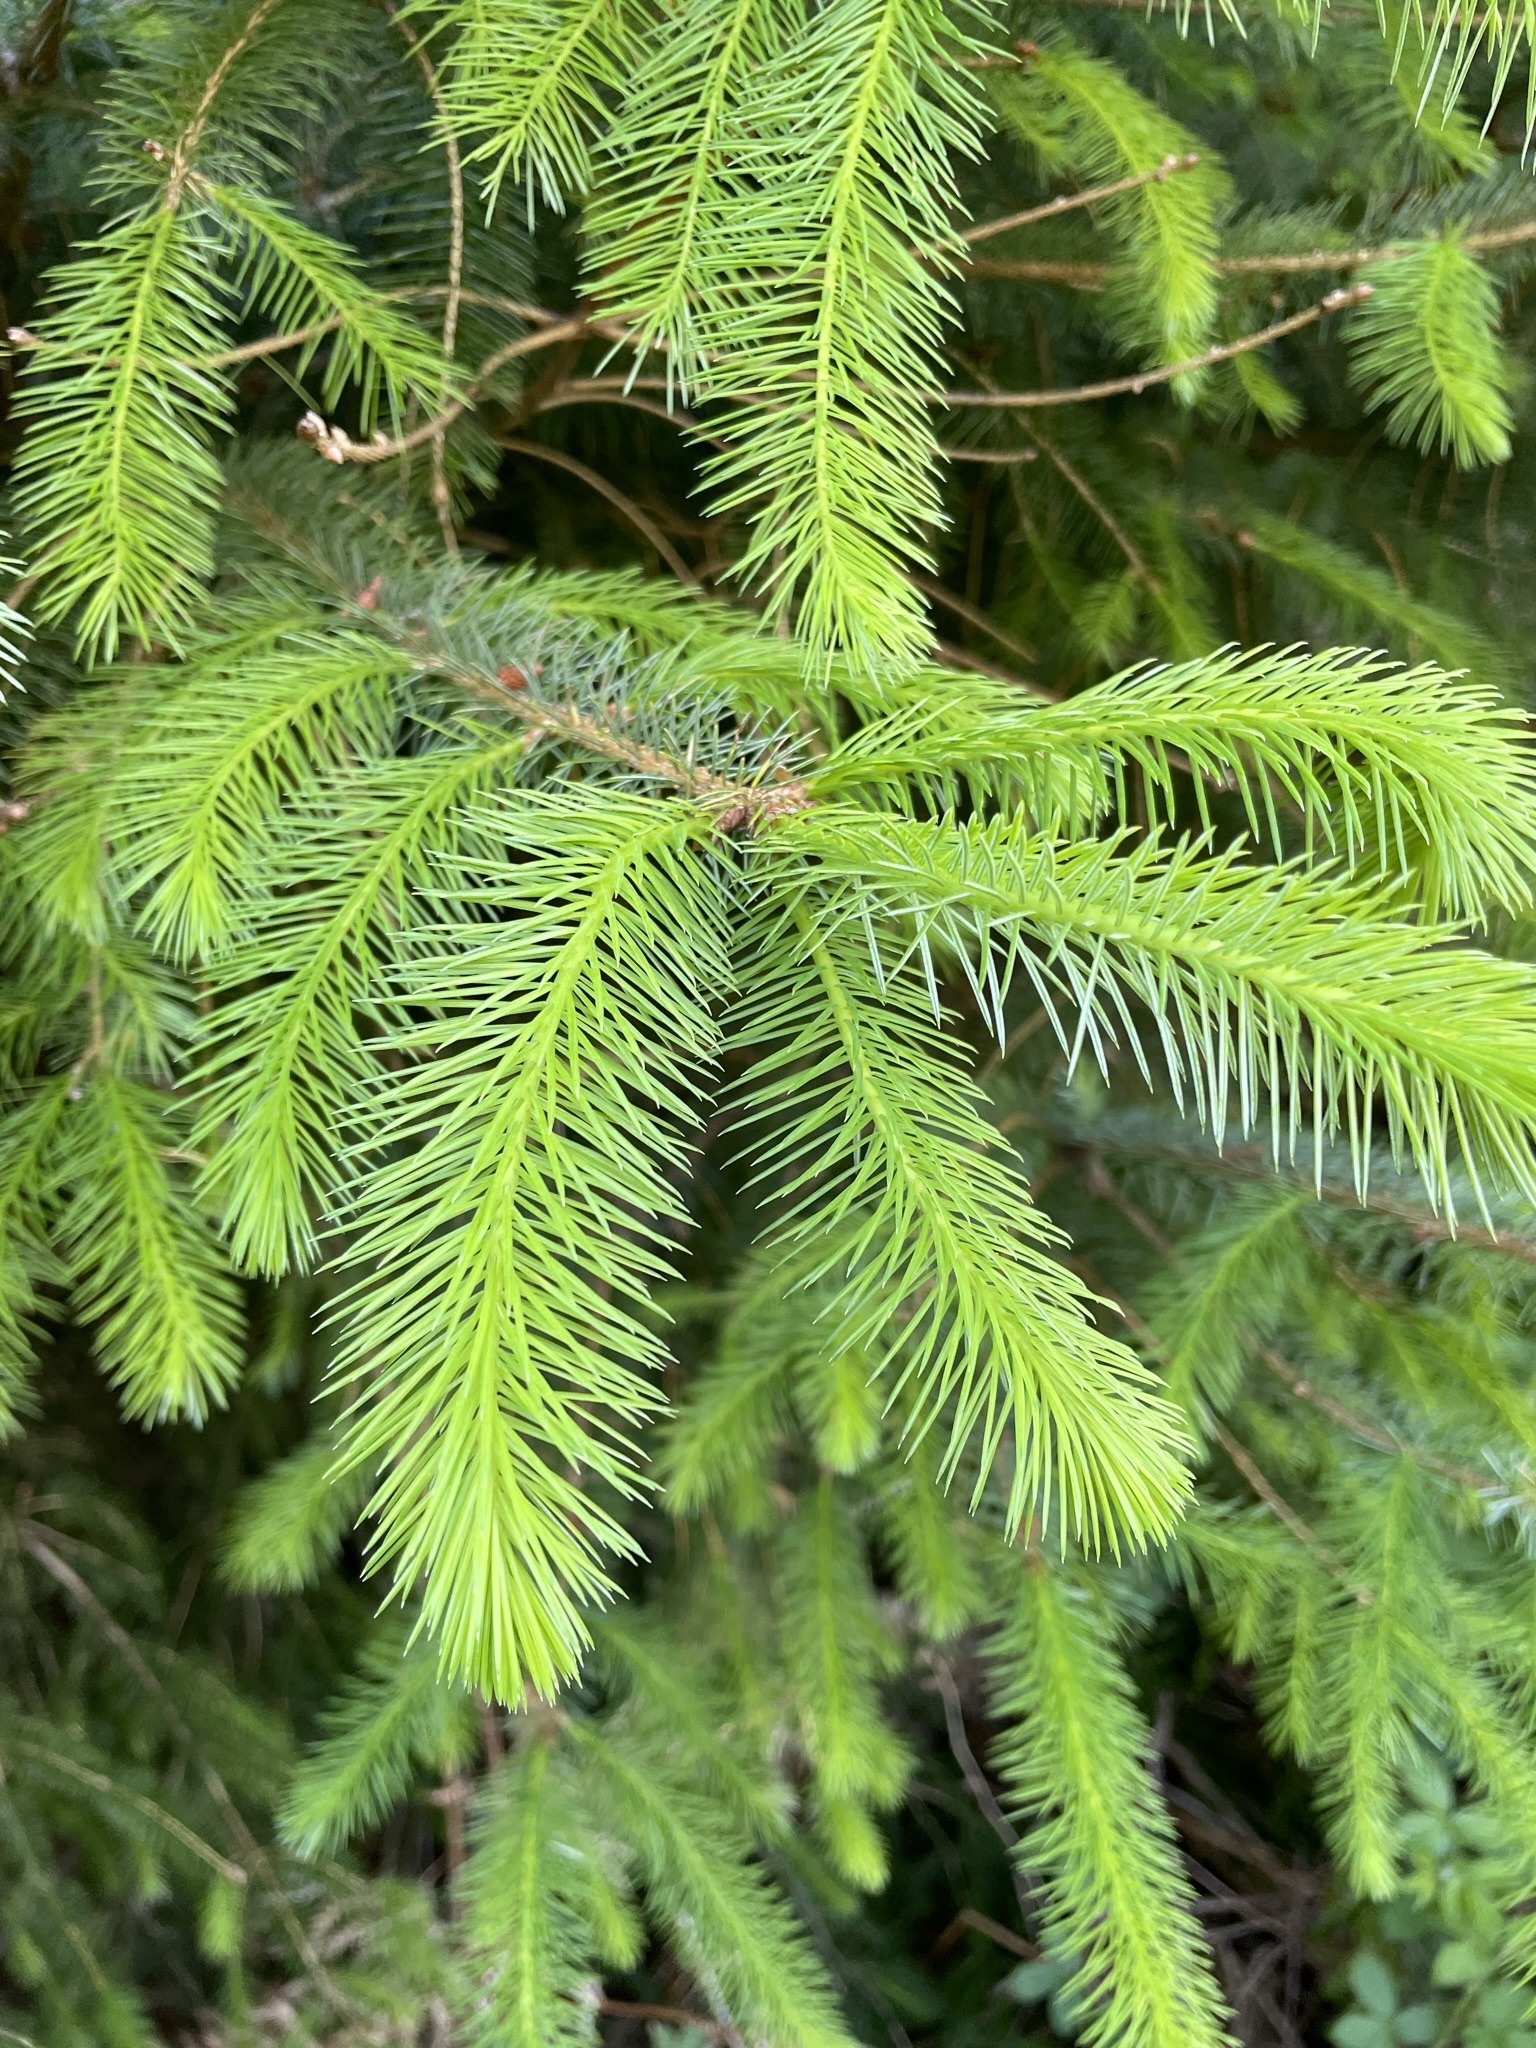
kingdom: Plantae
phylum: Tracheophyta
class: Pinopsida
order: Pinales
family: Pinaceae
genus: Picea
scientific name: Picea sitchensis
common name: Sitka spruce
